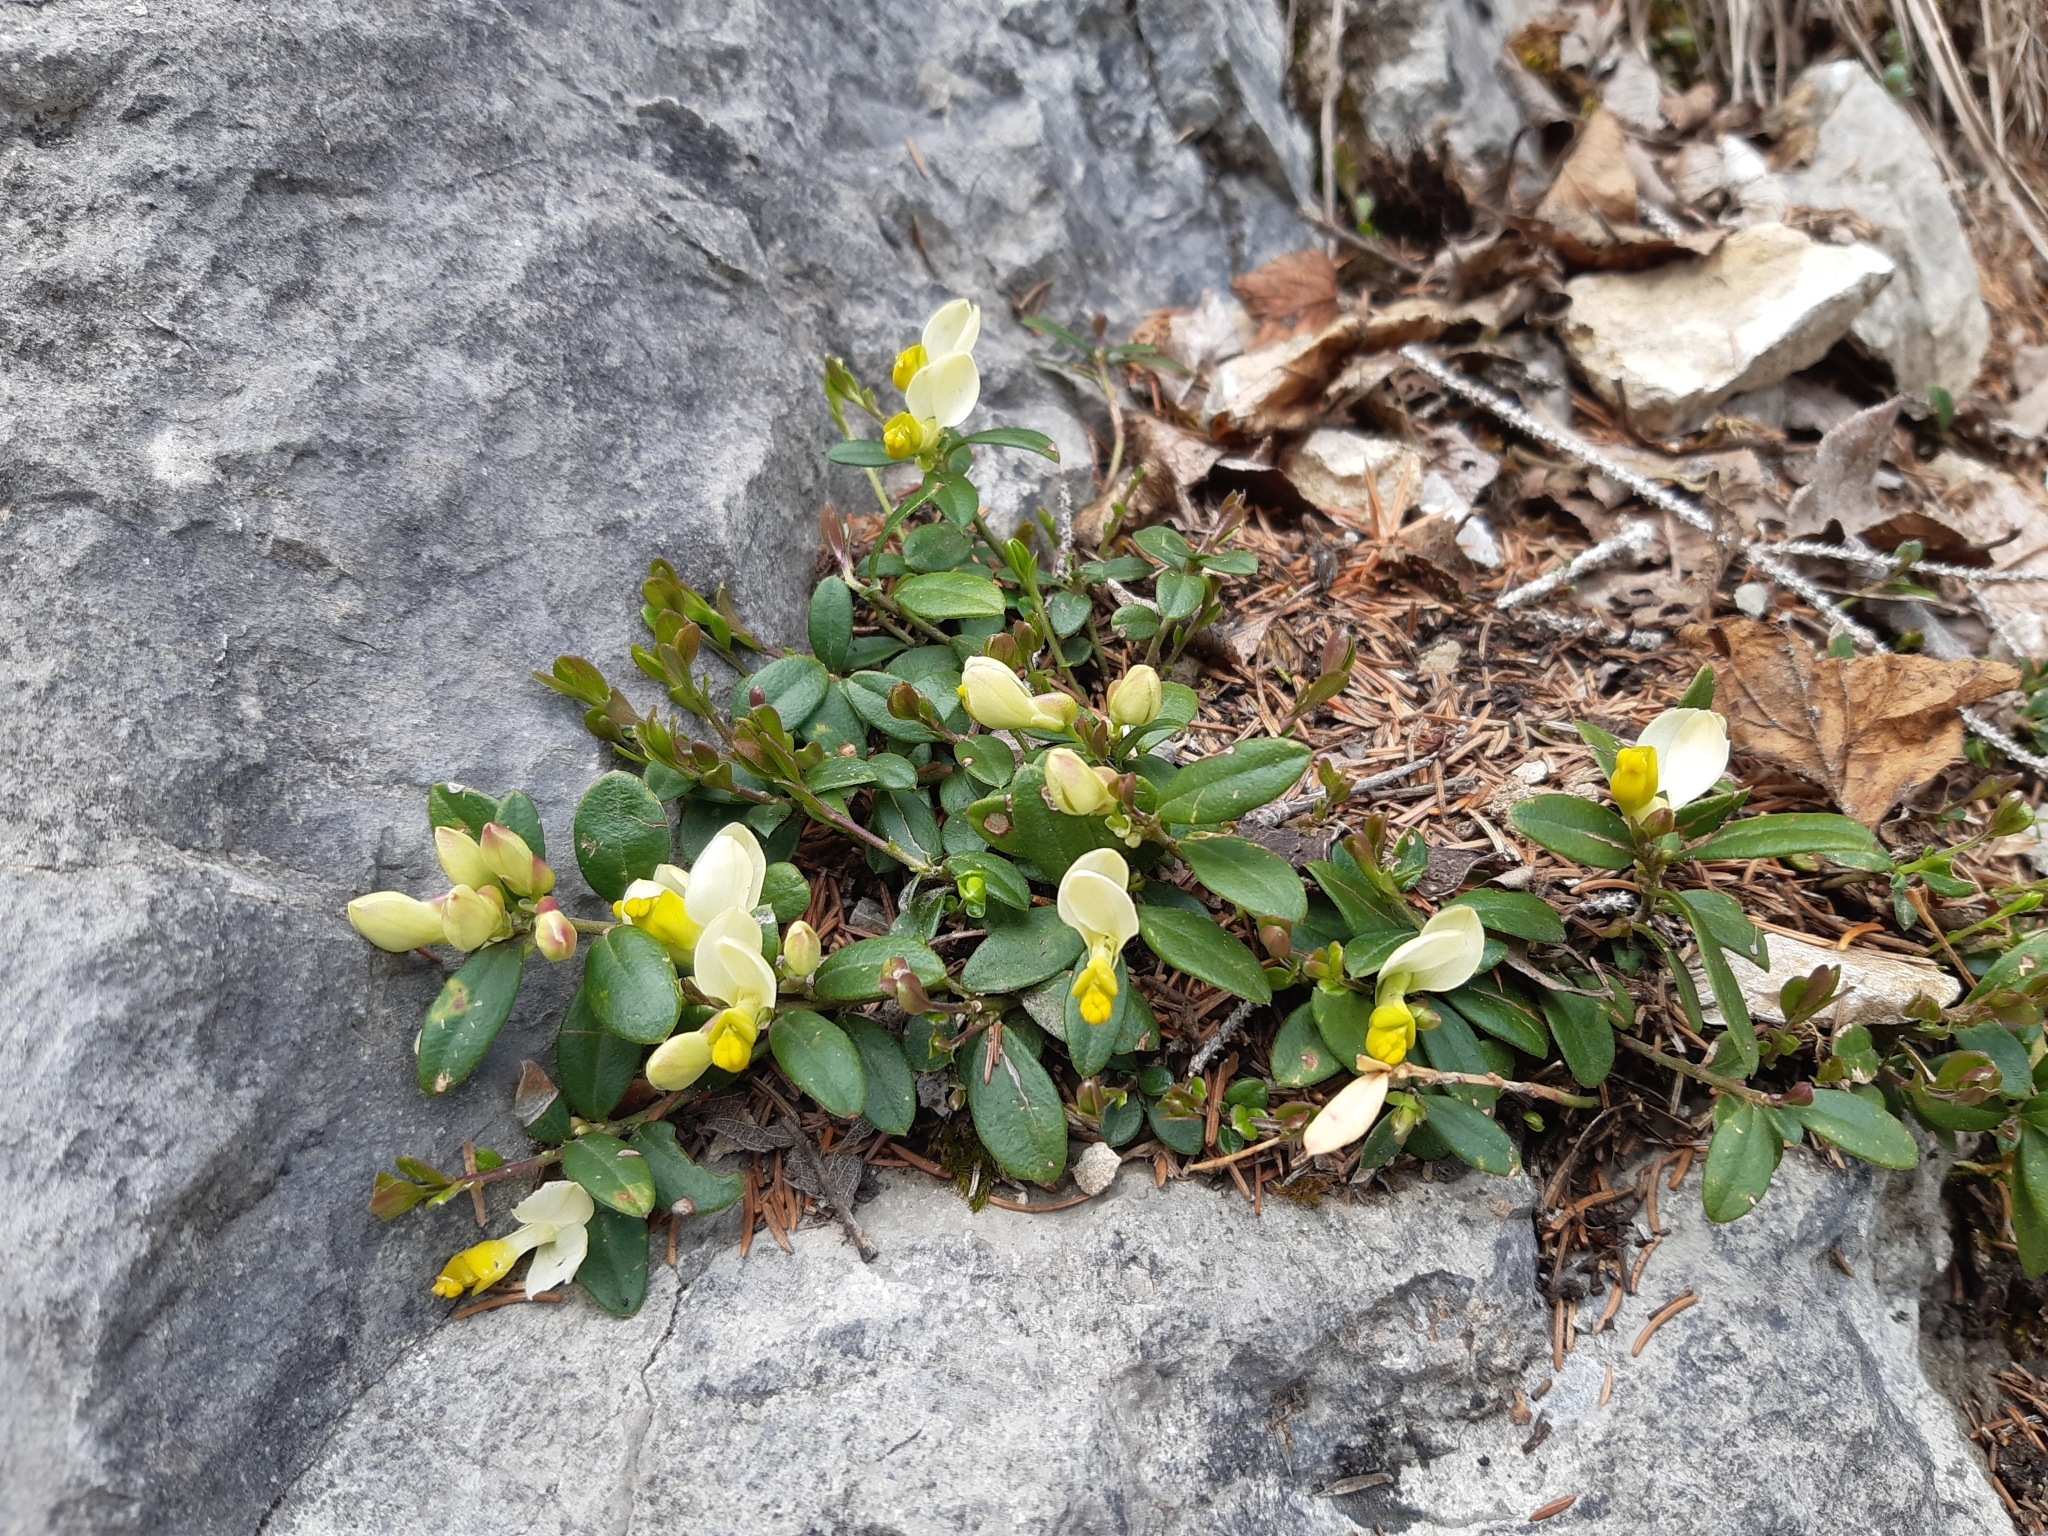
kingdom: Plantae
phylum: Tracheophyta
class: Magnoliopsida
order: Fabales
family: Polygalaceae
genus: Polygaloides
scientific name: Polygaloides chamaebuxus
